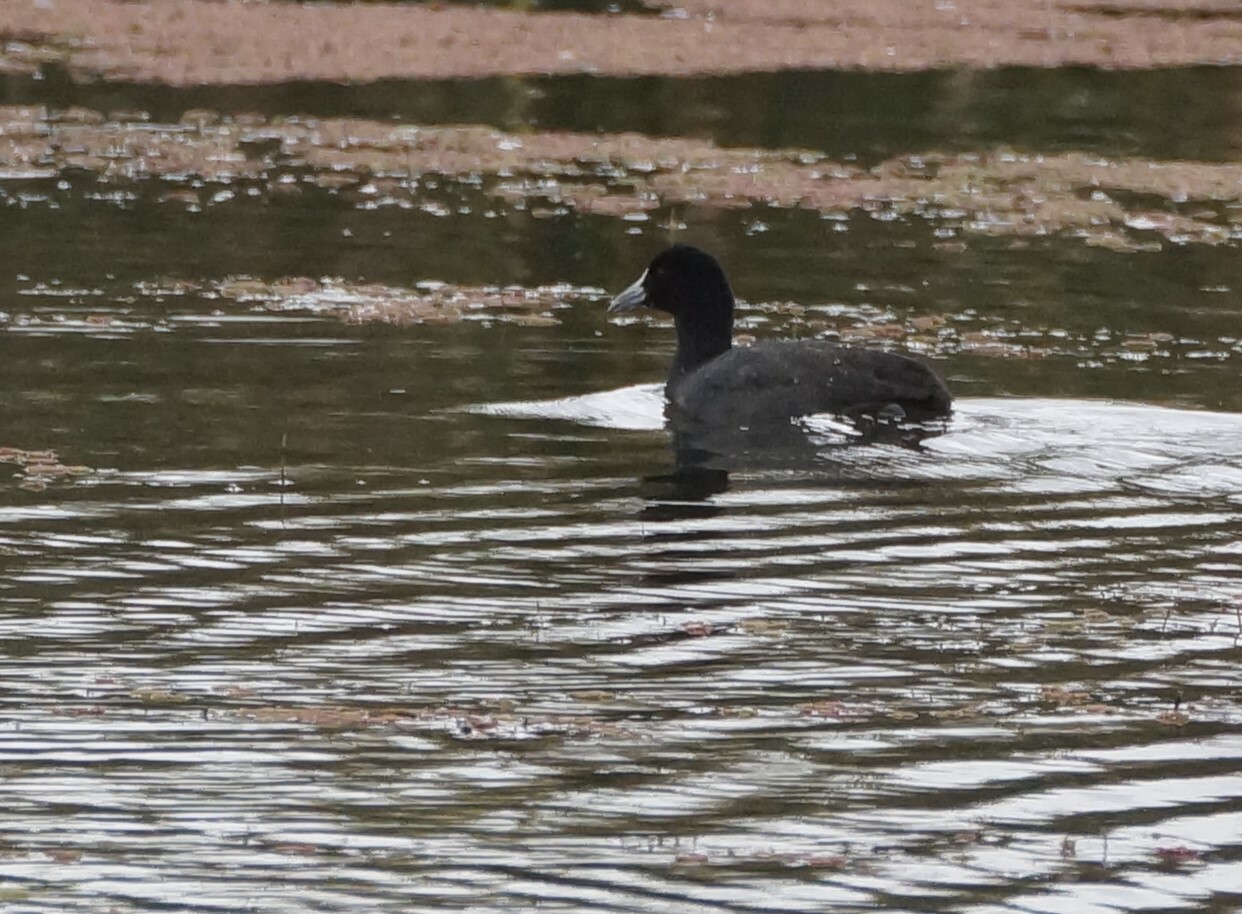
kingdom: Animalia
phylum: Chordata
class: Aves
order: Gruiformes
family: Rallidae
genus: Fulica
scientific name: Fulica atra
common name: Eurasian coot
